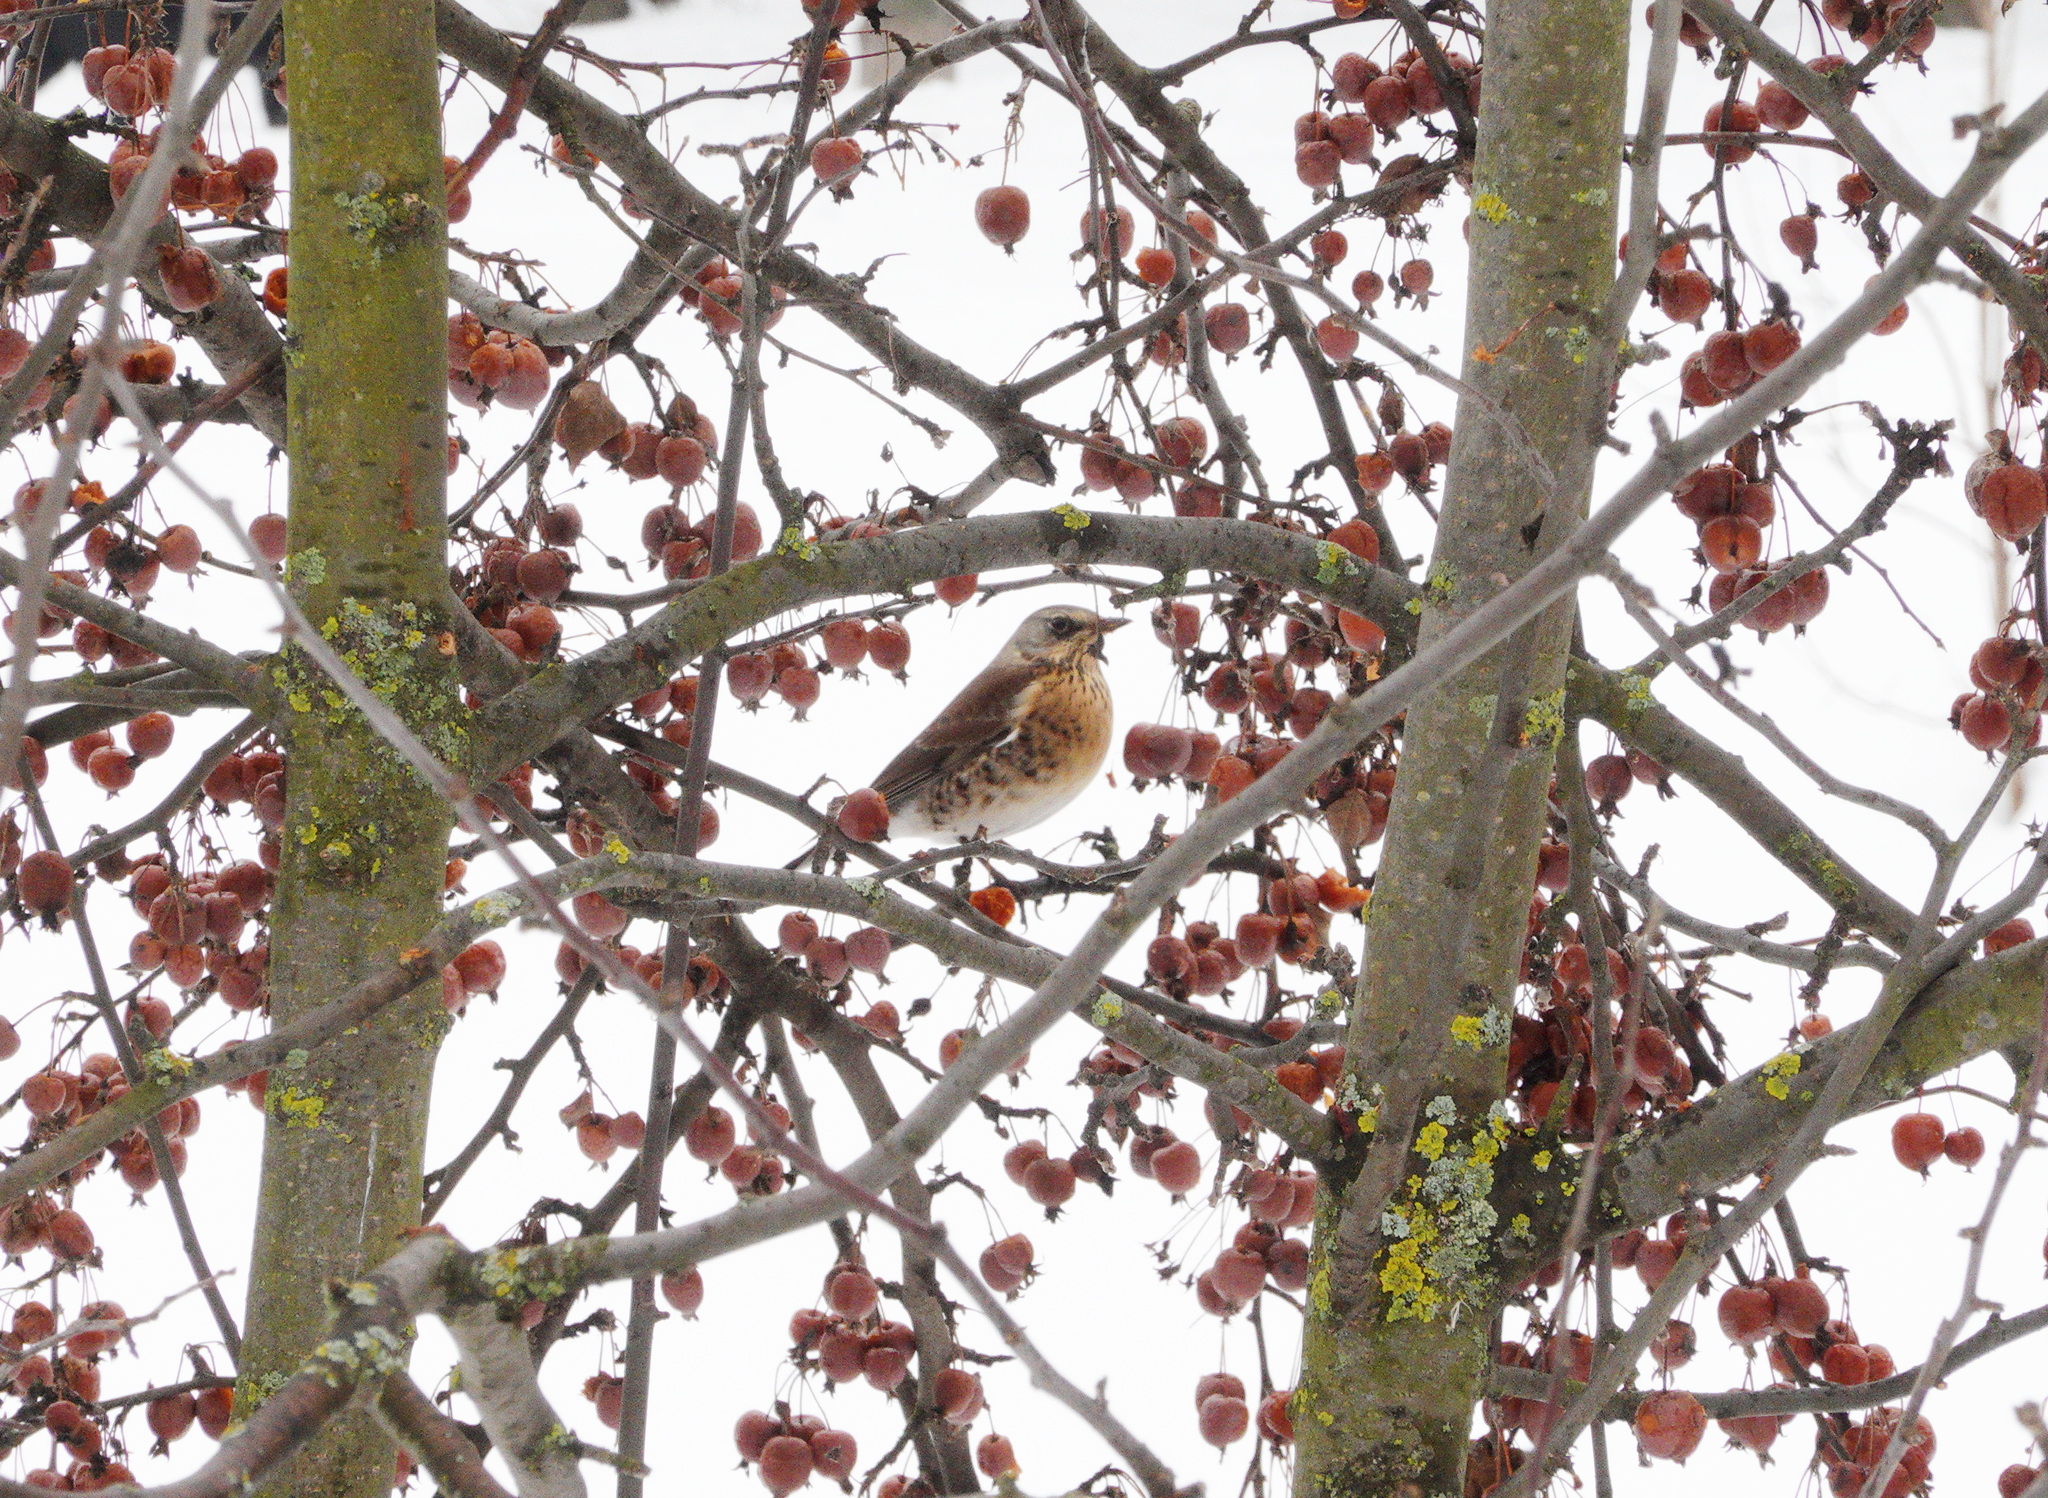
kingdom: Animalia
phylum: Chordata
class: Aves
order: Passeriformes
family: Turdidae
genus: Turdus
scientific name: Turdus pilaris
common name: Fieldfare
